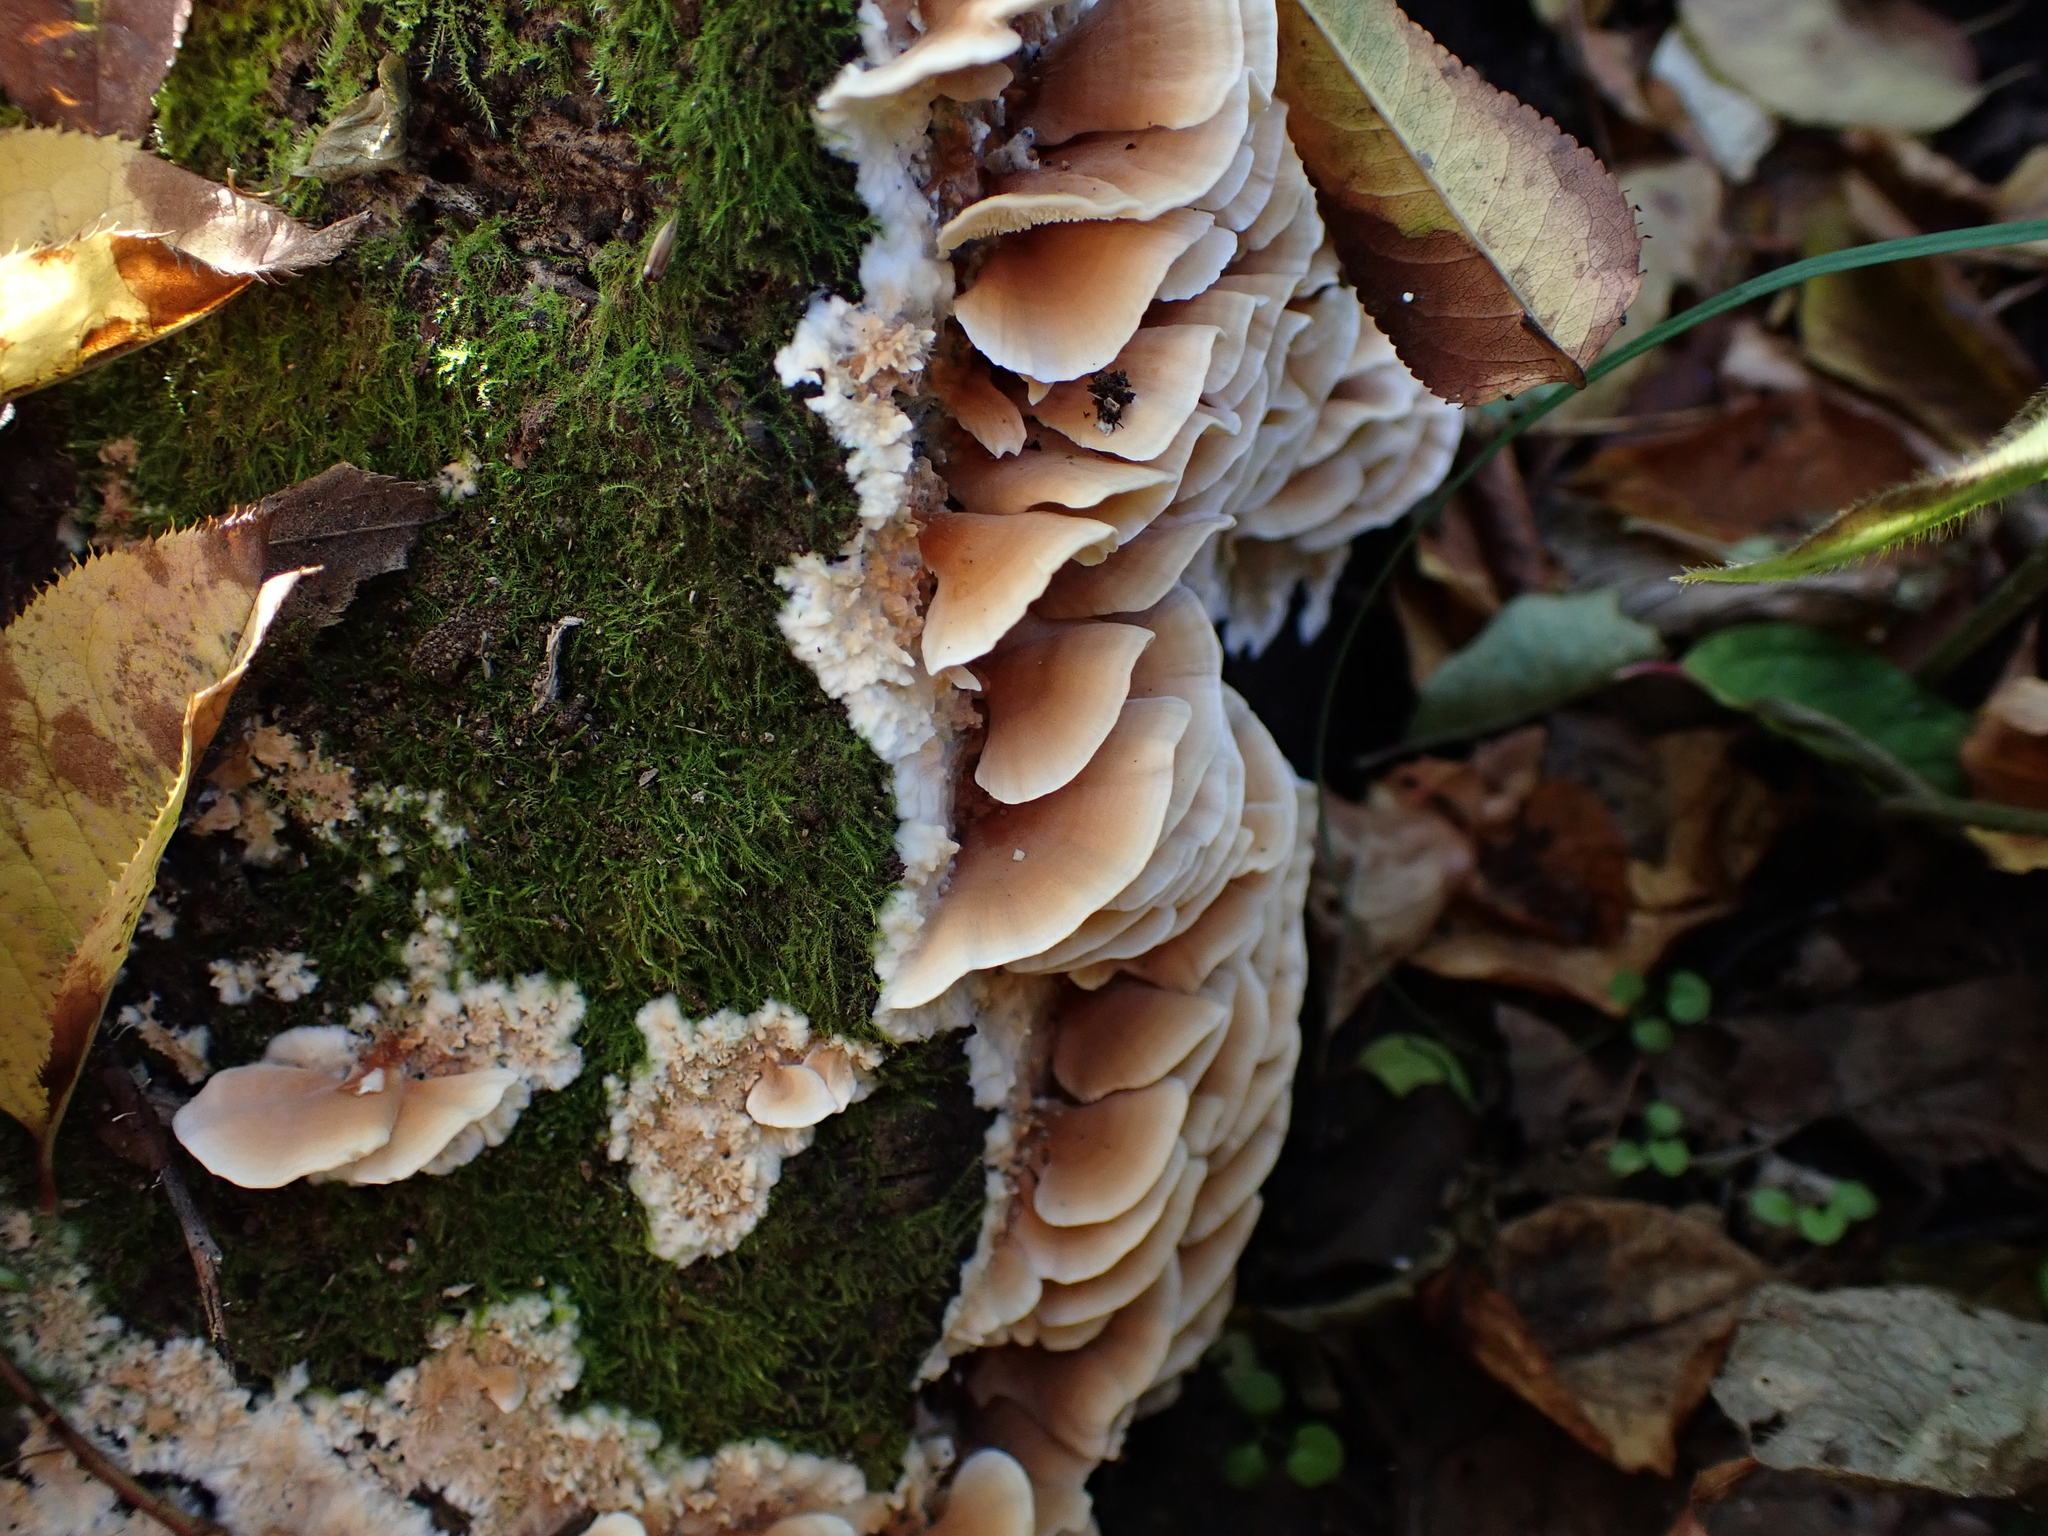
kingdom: Fungi
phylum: Basidiomycota
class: Agaricomycetes
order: Polyporales
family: Irpicaceae
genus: Irpex
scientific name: Irpex consors
